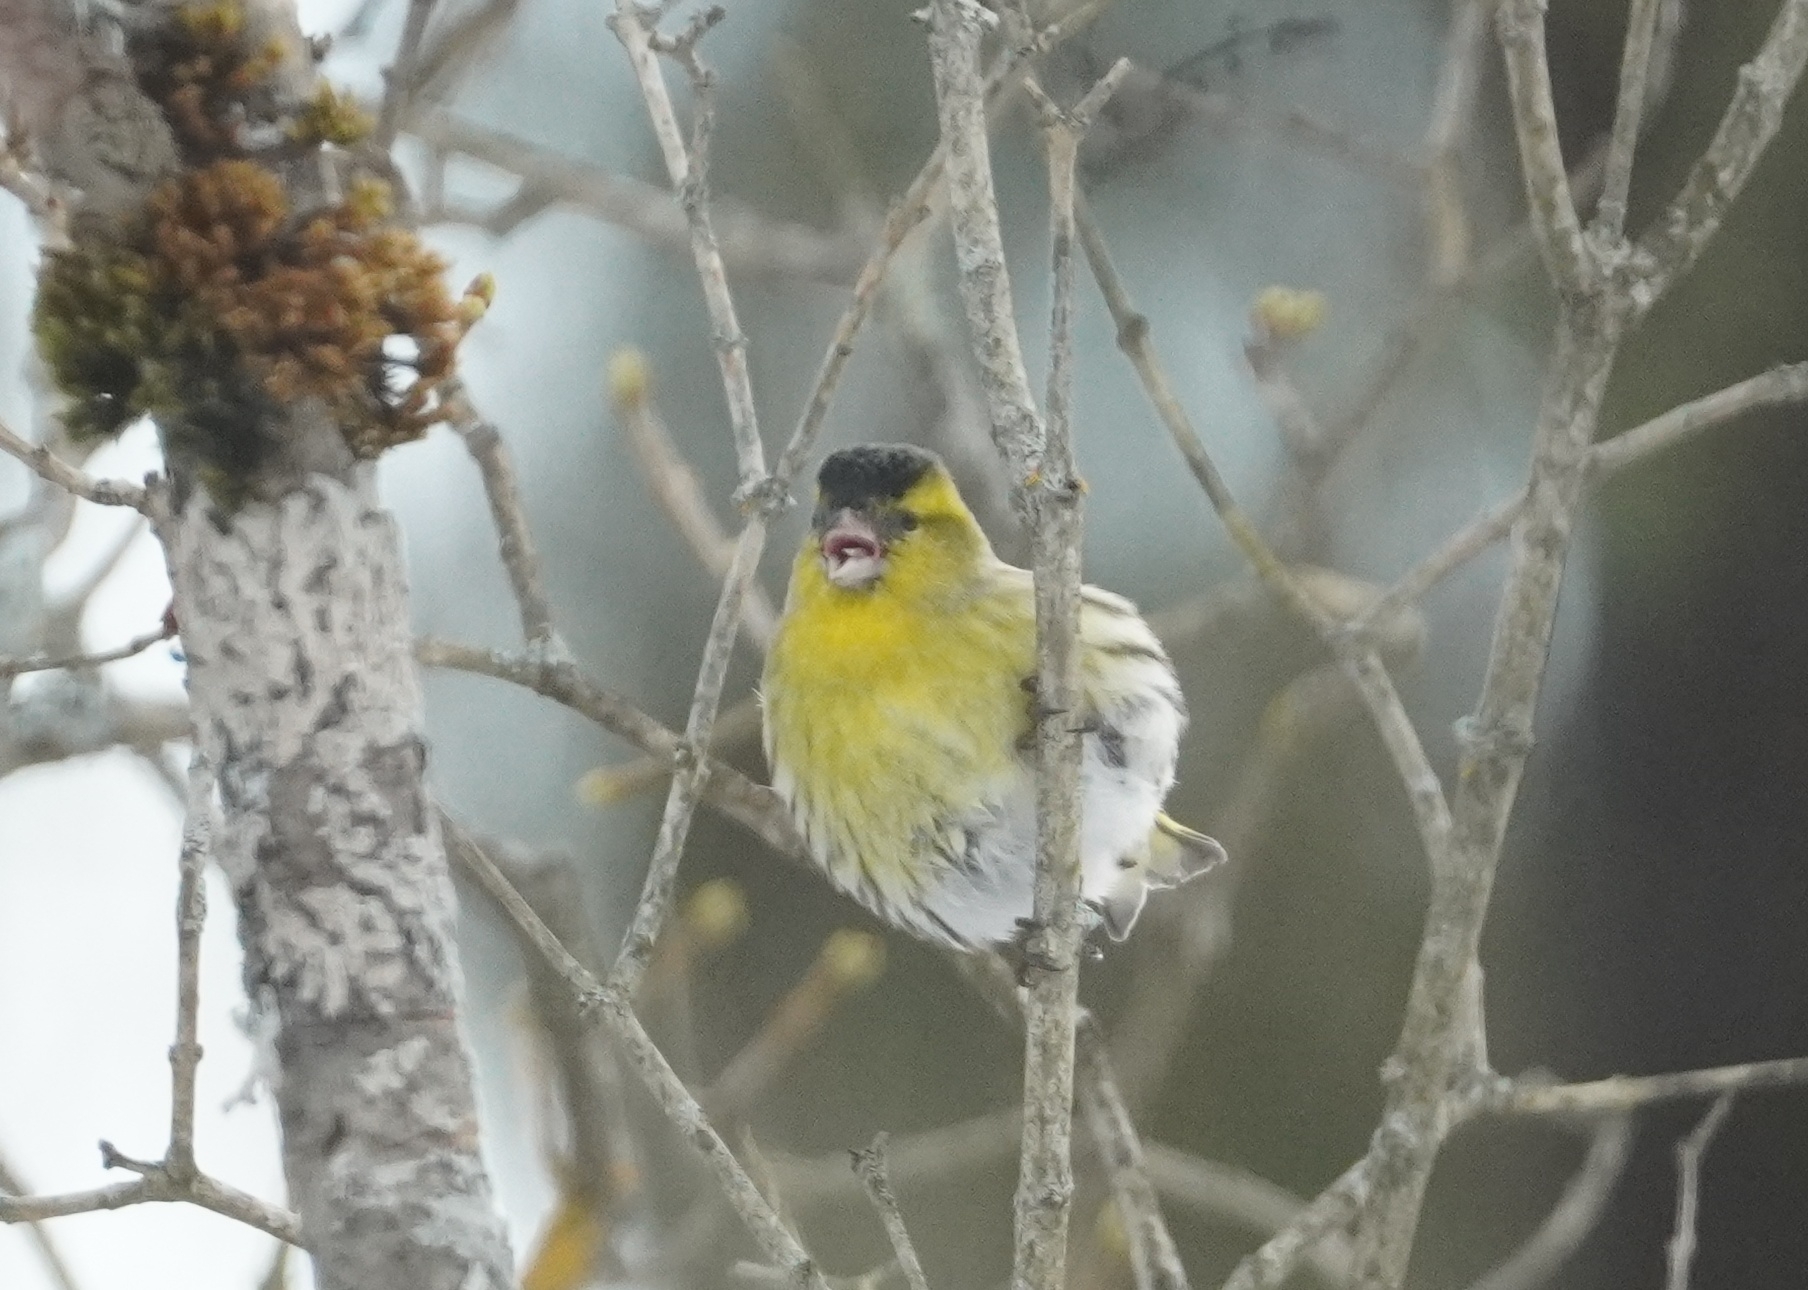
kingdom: Animalia
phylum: Chordata
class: Aves
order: Passeriformes
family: Fringillidae
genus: Spinus
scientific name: Spinus spinus
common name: Eurasian siskin
